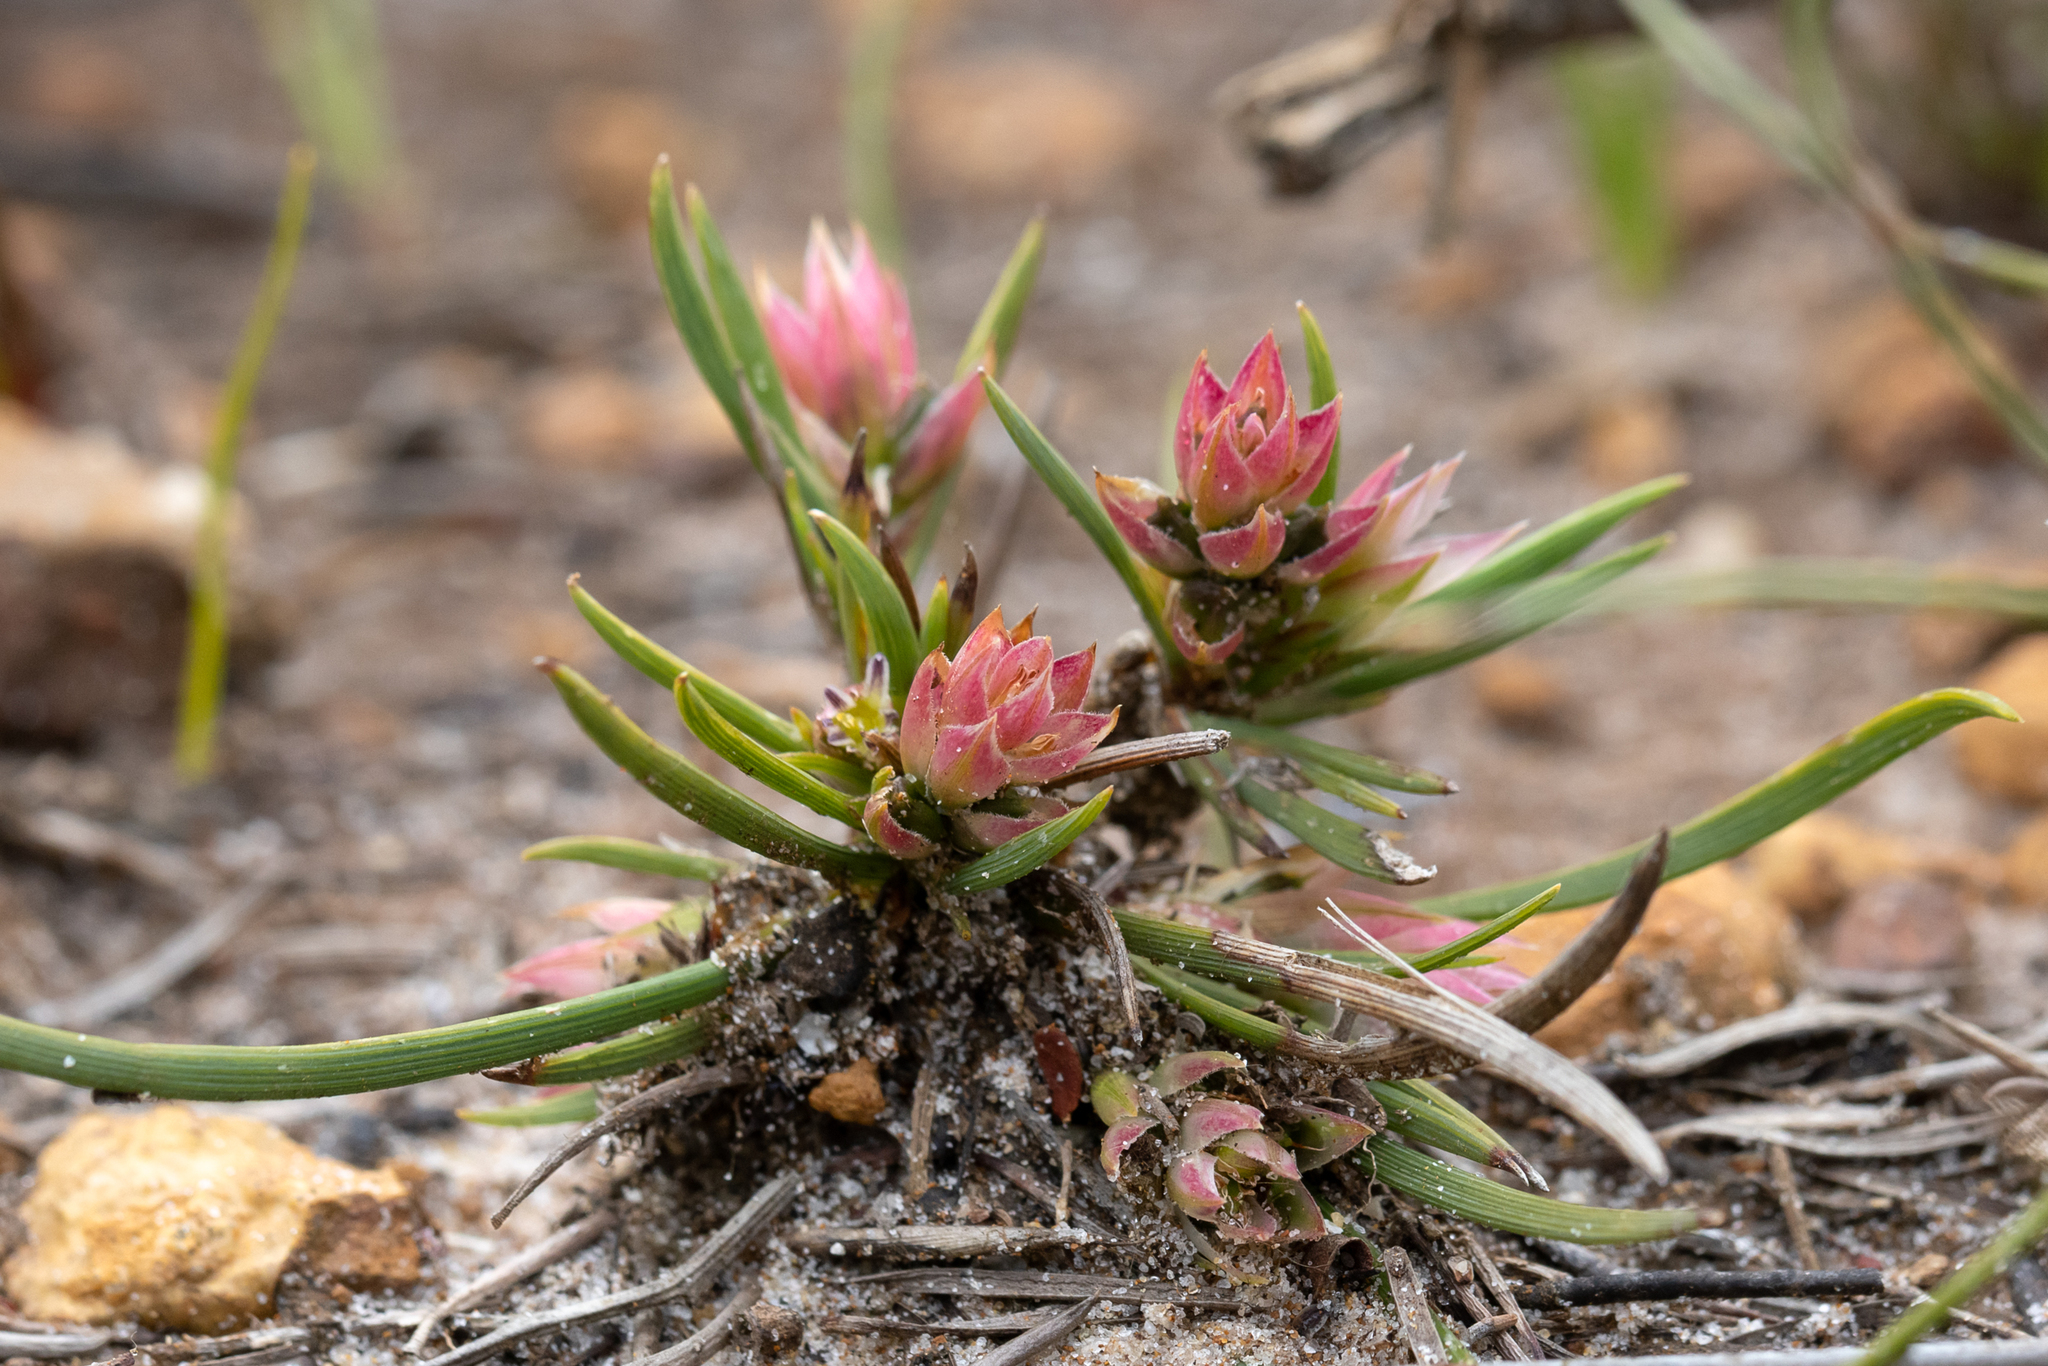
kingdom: Plantae
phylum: Tracheophyta
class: Liliopsida
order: Asparagales
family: Asphodelaceae
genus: Johnsonia
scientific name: Johnsonia acaulis
